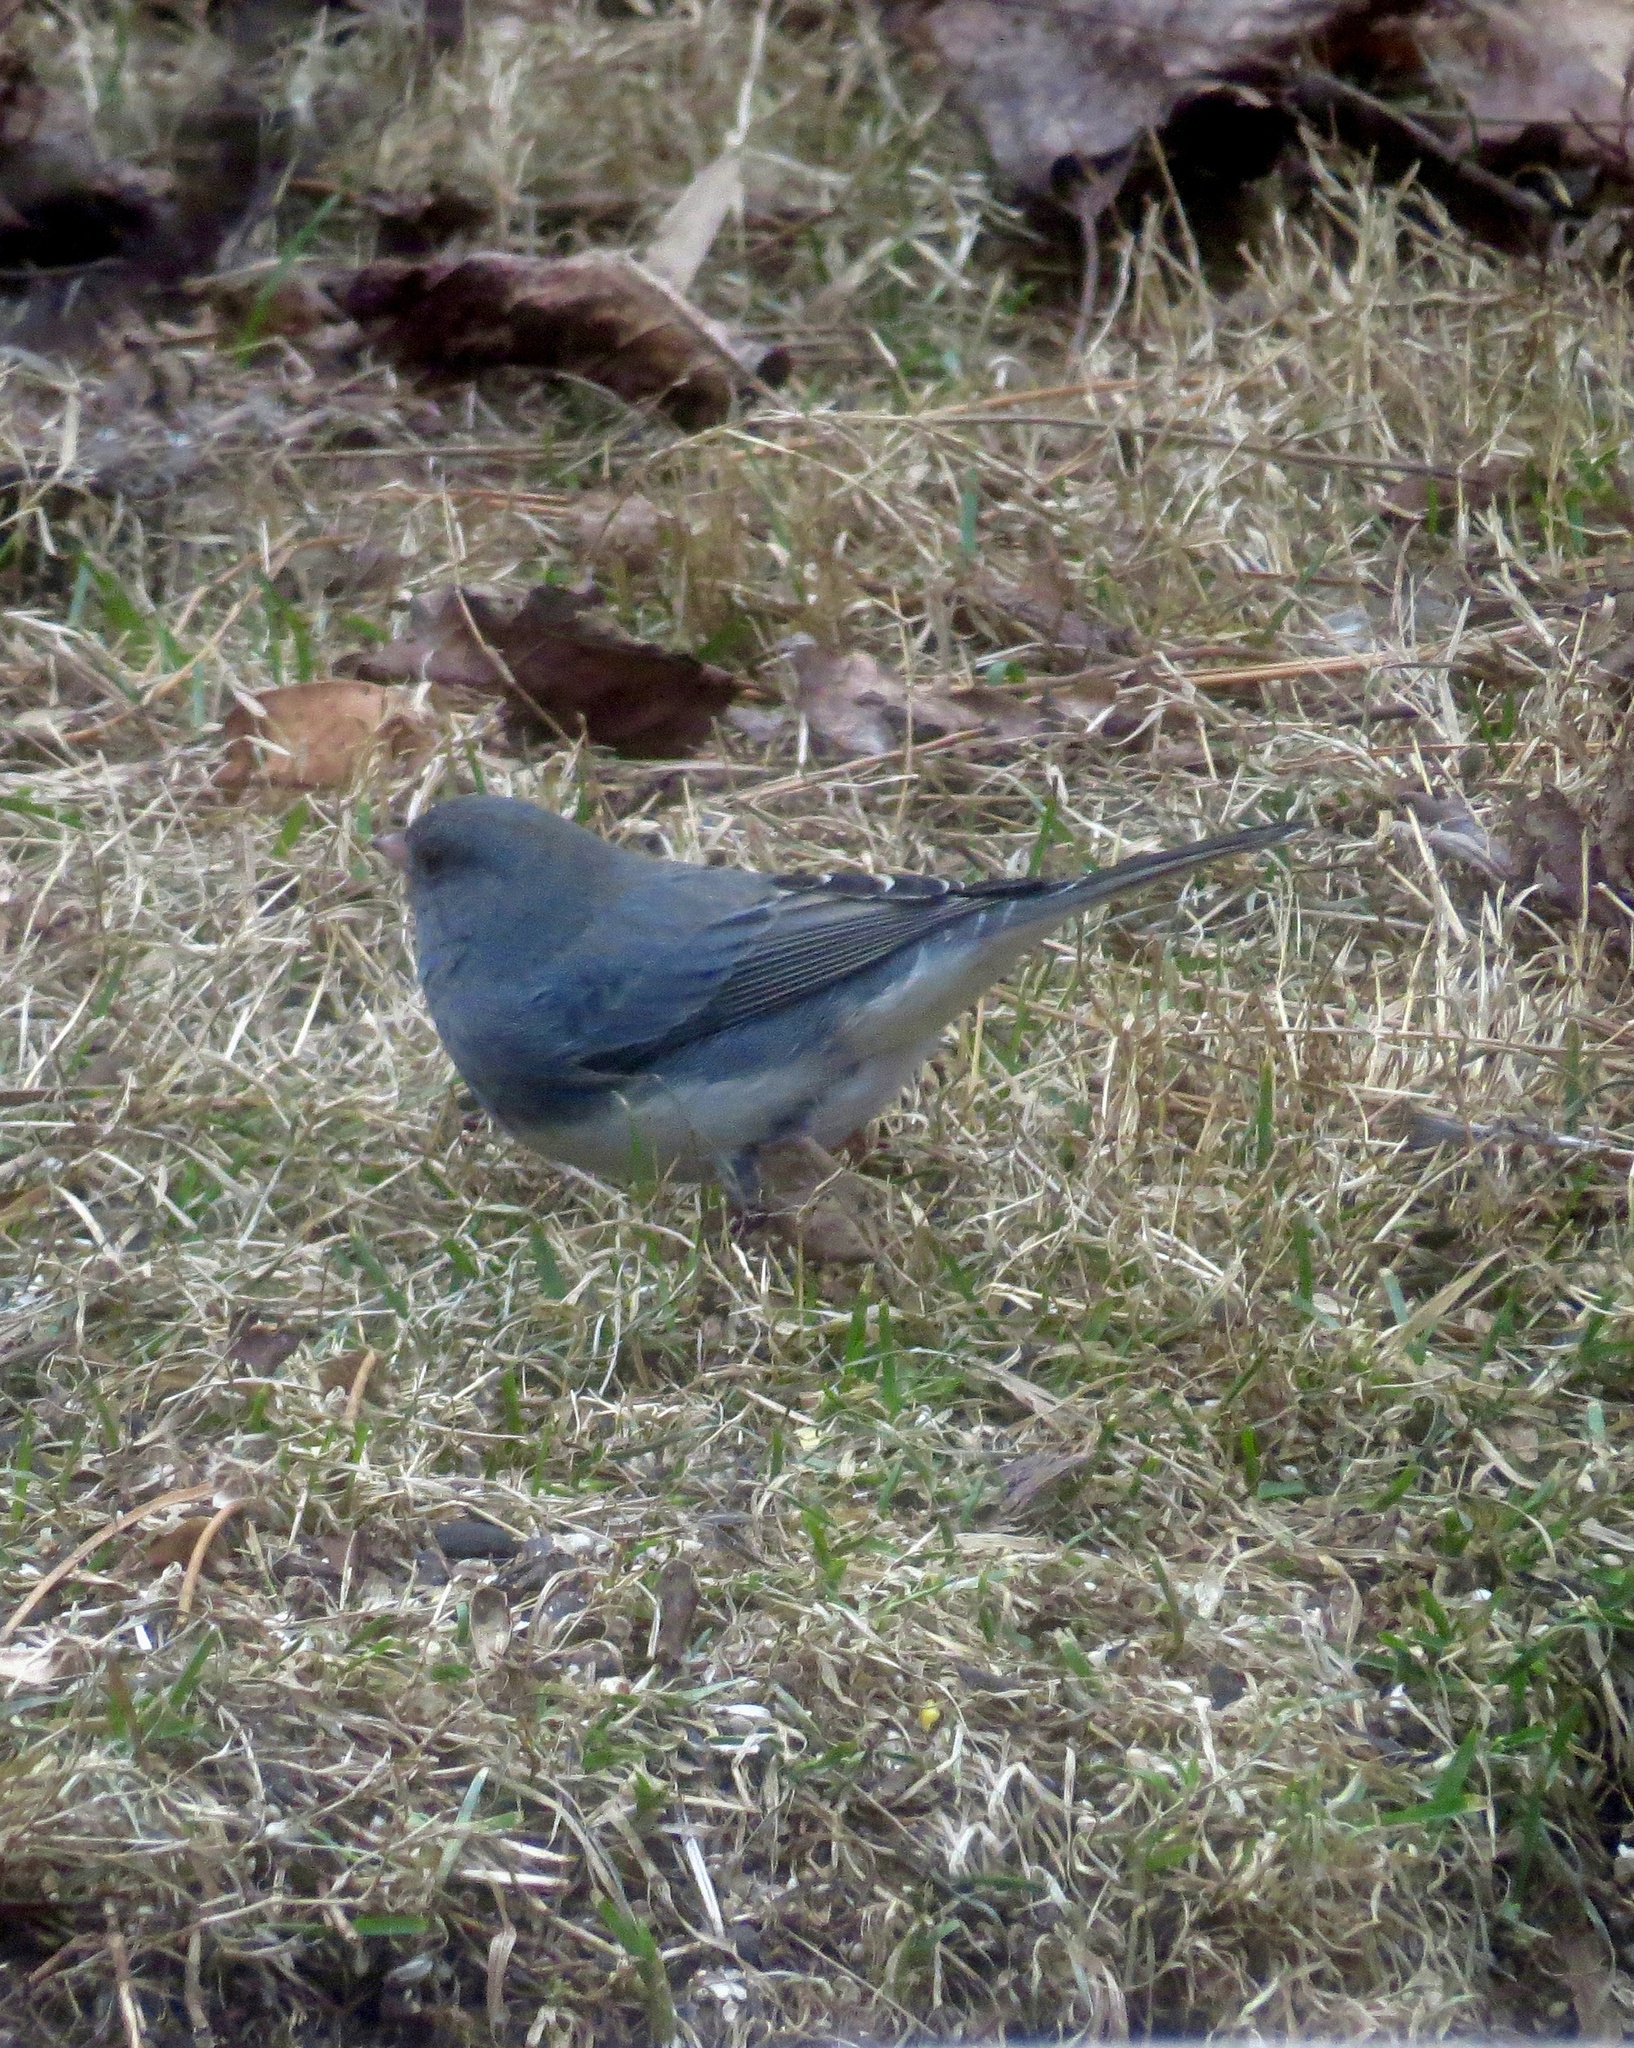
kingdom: Animalia
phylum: Chordata
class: Aves
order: Passeriformes
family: Passerellidae
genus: Junco
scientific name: Junco hyemalis
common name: Dark-eyed junco
